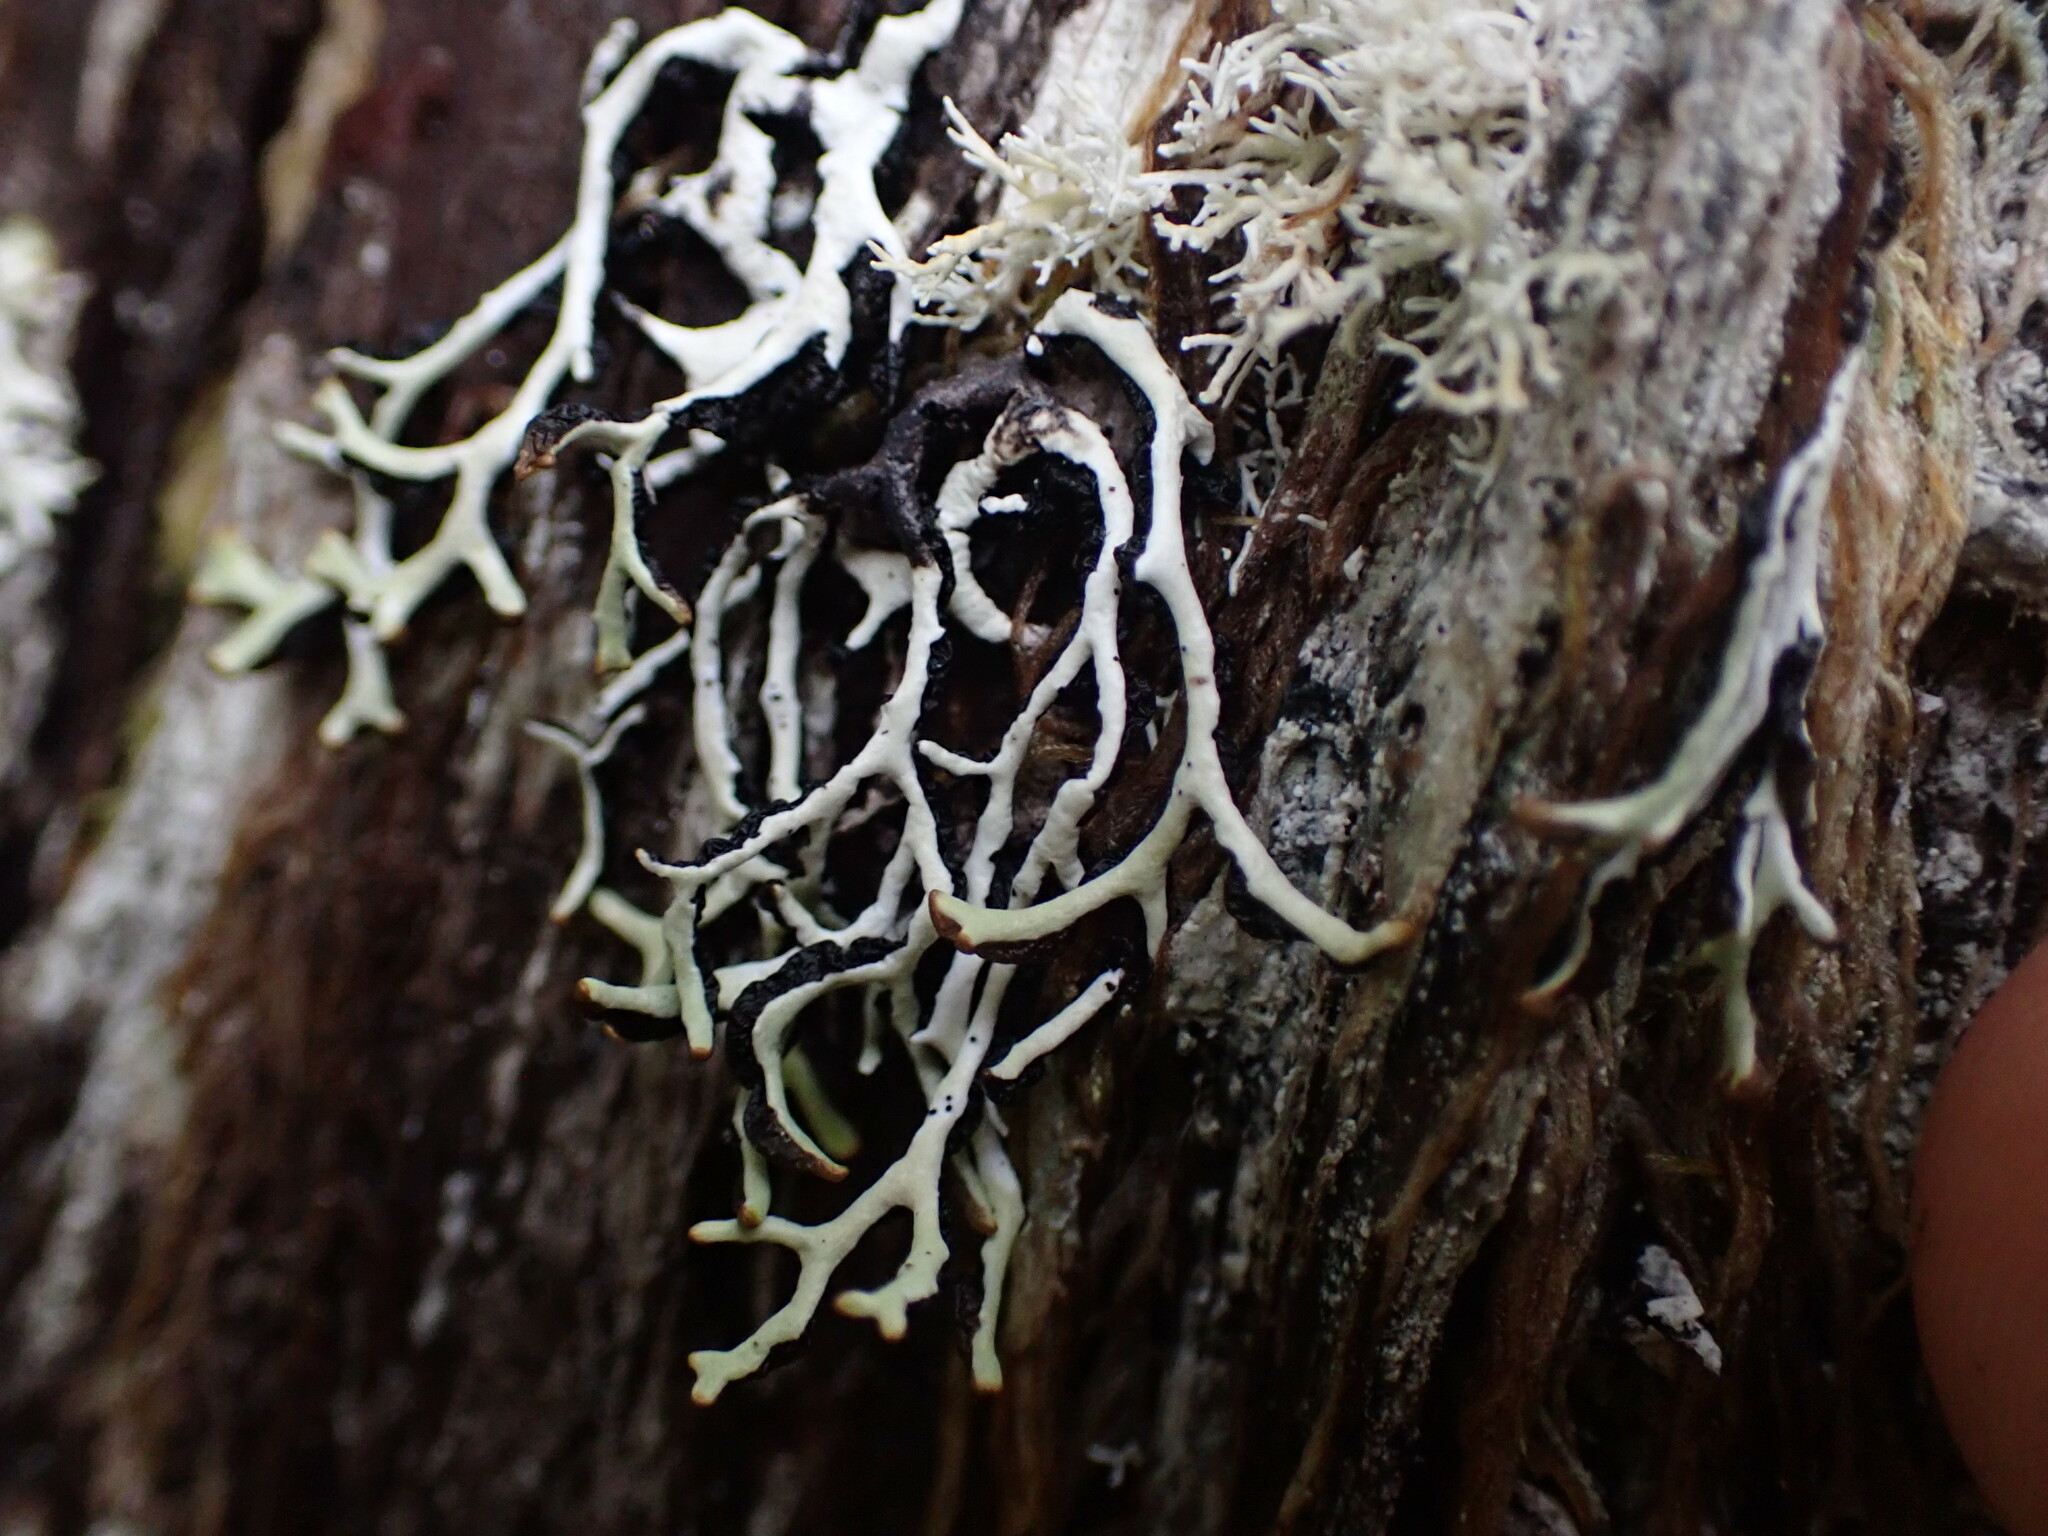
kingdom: Fungi
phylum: Ascomycota
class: Lecanoromycetes
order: Lecanorales
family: Parmeliaceae
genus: Hypogymnia
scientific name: Hypogymnia duplicata
